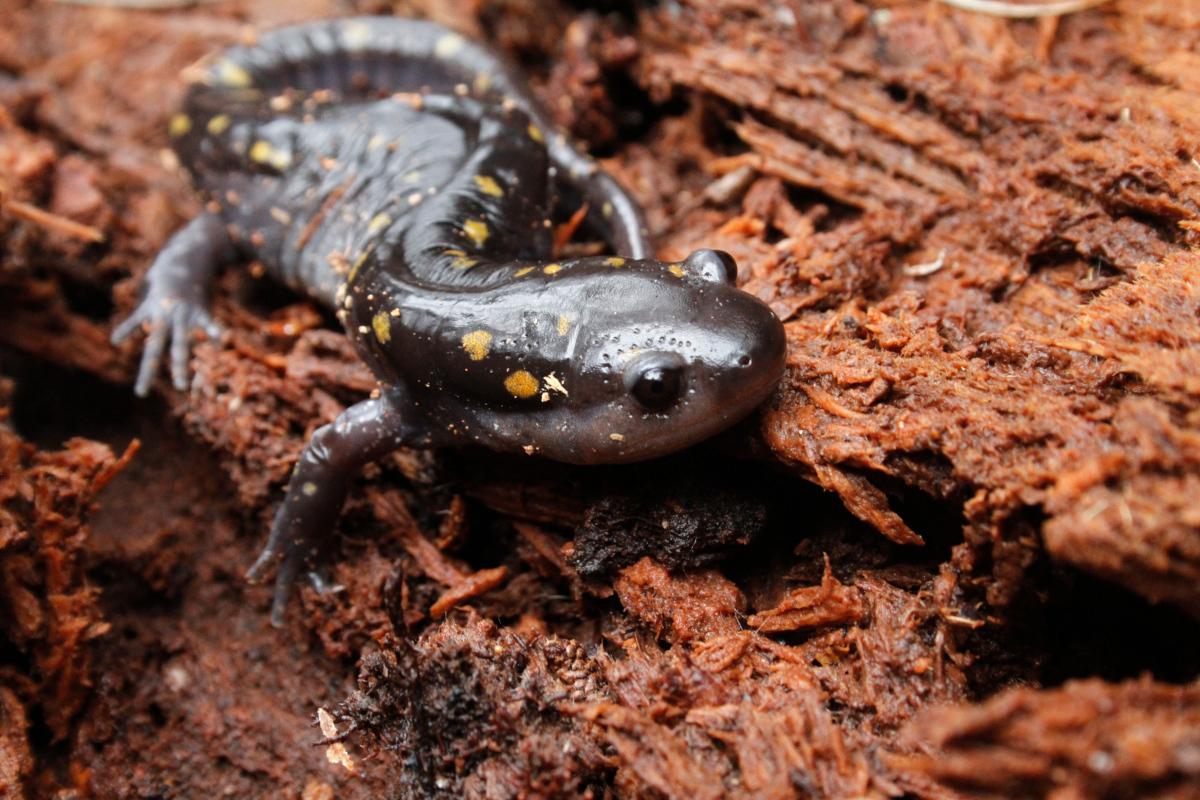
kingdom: Animalia
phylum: Chordata
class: Amphibia
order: Caudata
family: Ambystomatidae
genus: Ambystoma
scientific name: Ambystoma maculatum
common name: Spotted salamander
